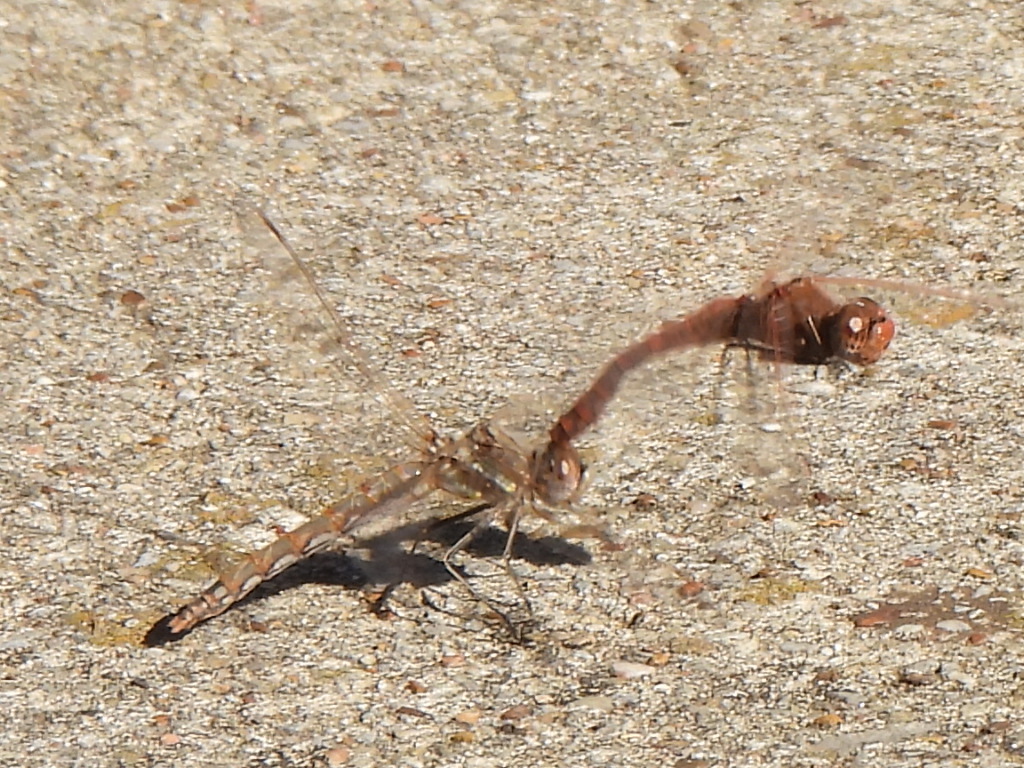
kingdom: Animalia
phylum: Arthropoda
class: Insecta
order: Odonata
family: Libellulidae
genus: Sympetrum
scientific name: Sympetrum corruptum
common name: Variegated meadowhawk
